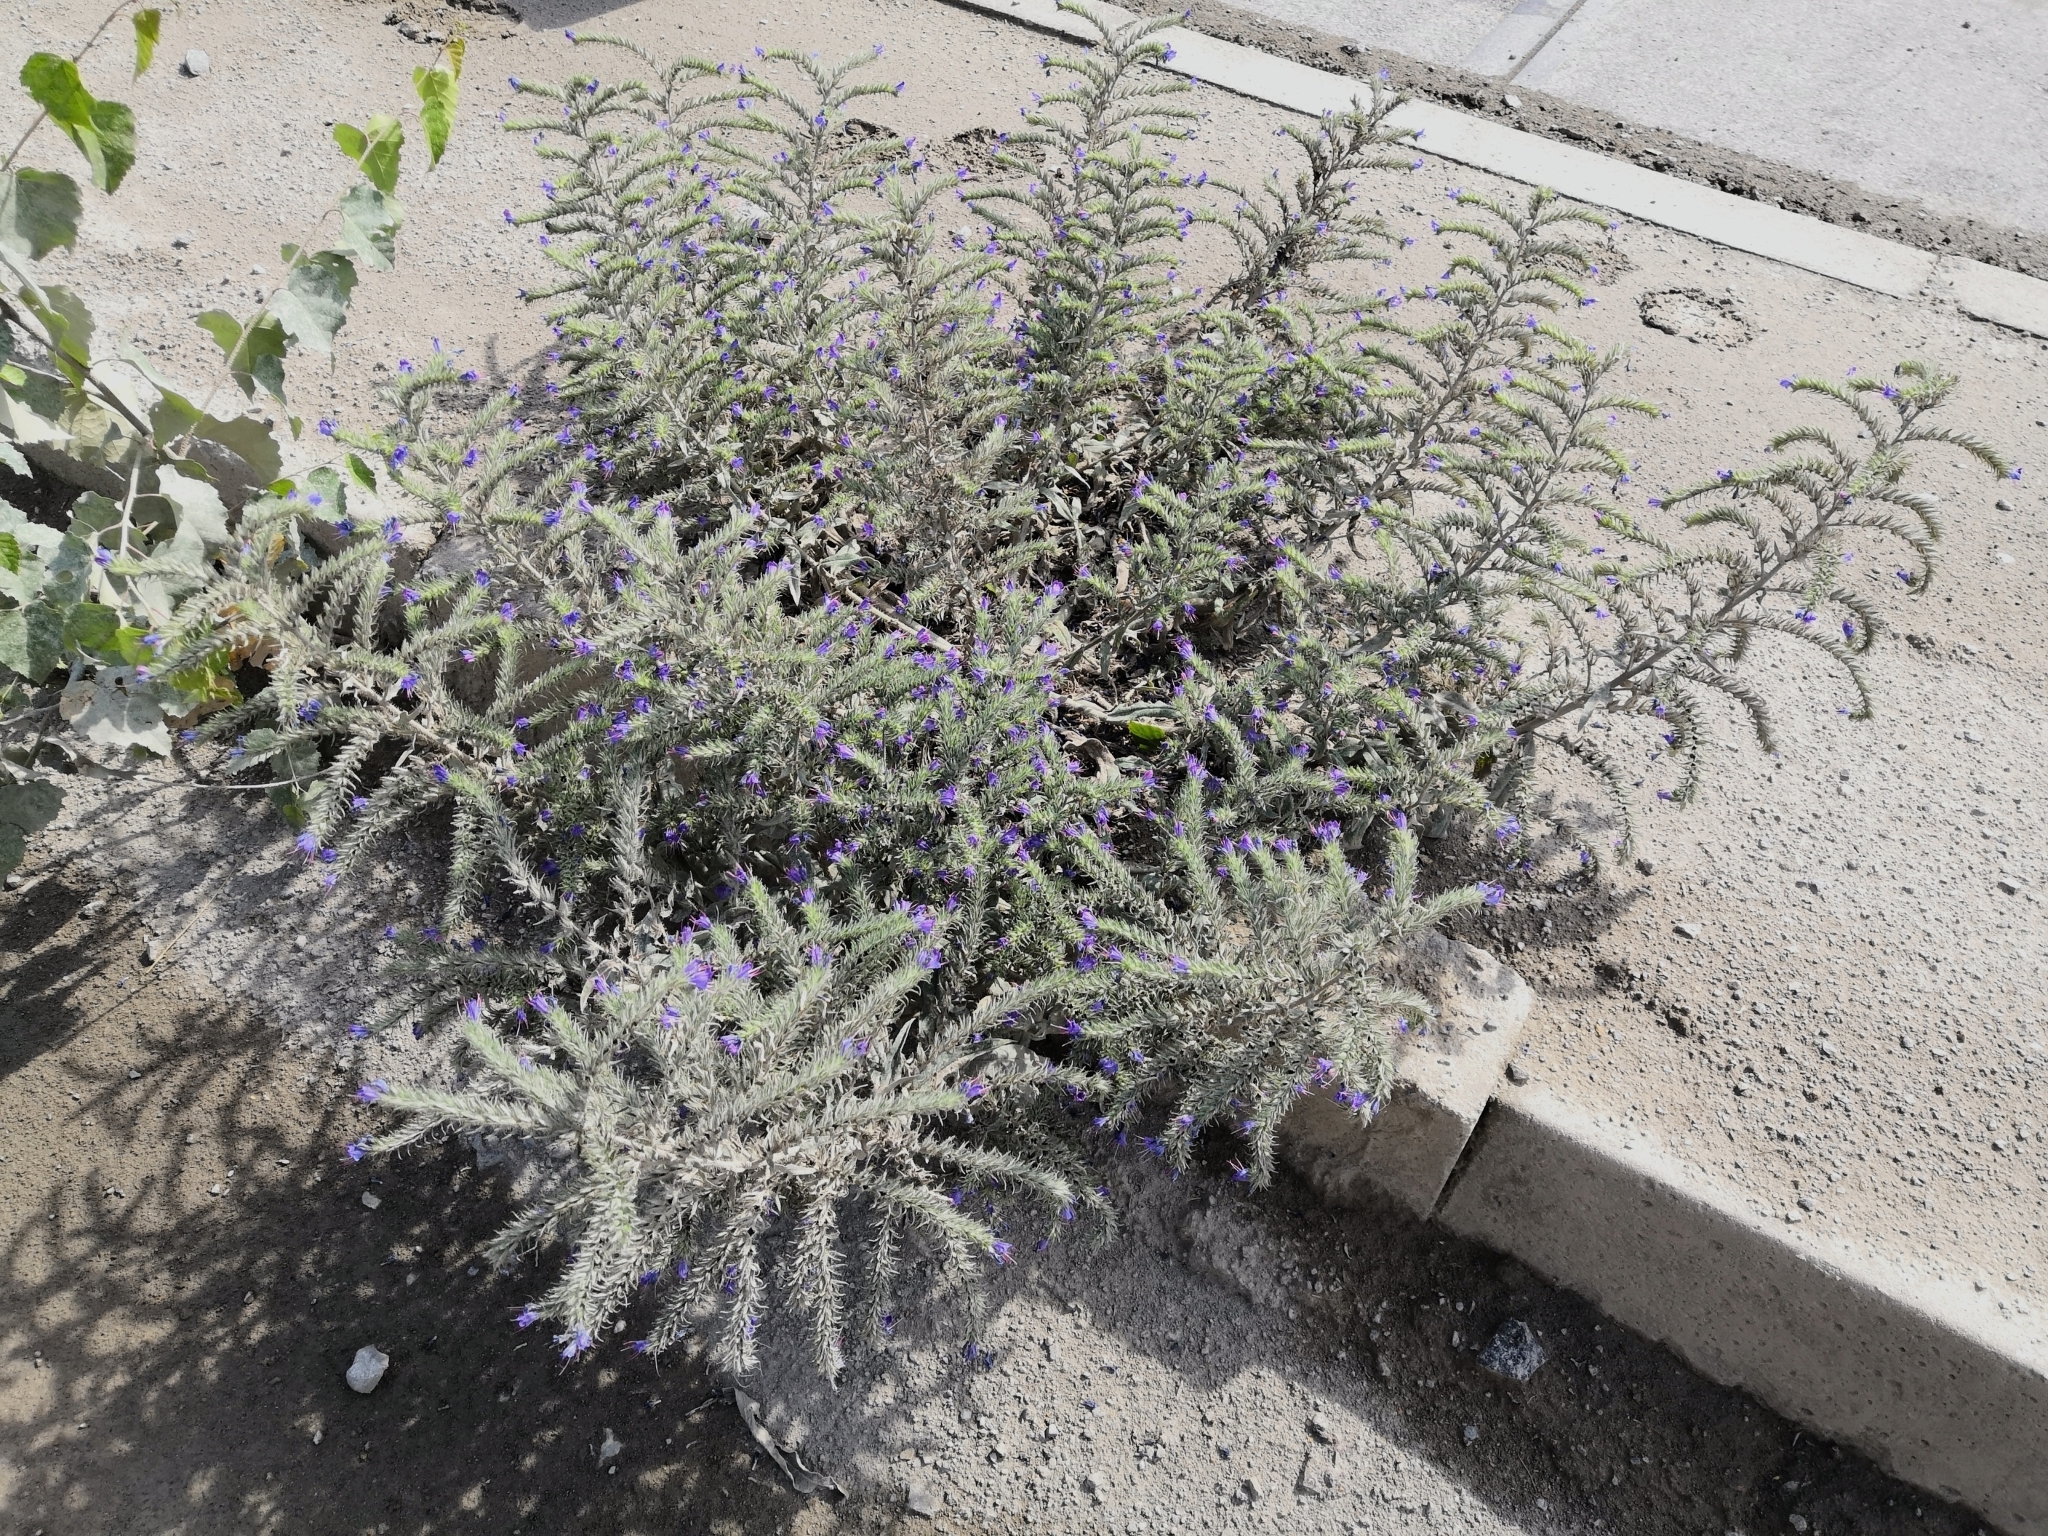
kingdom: Plantae
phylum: Tracheophyta
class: Magnoliopsida
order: Boraginales
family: Boraginaceae
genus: Echium
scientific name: Echium vulgare
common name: Common viper's bugloss
